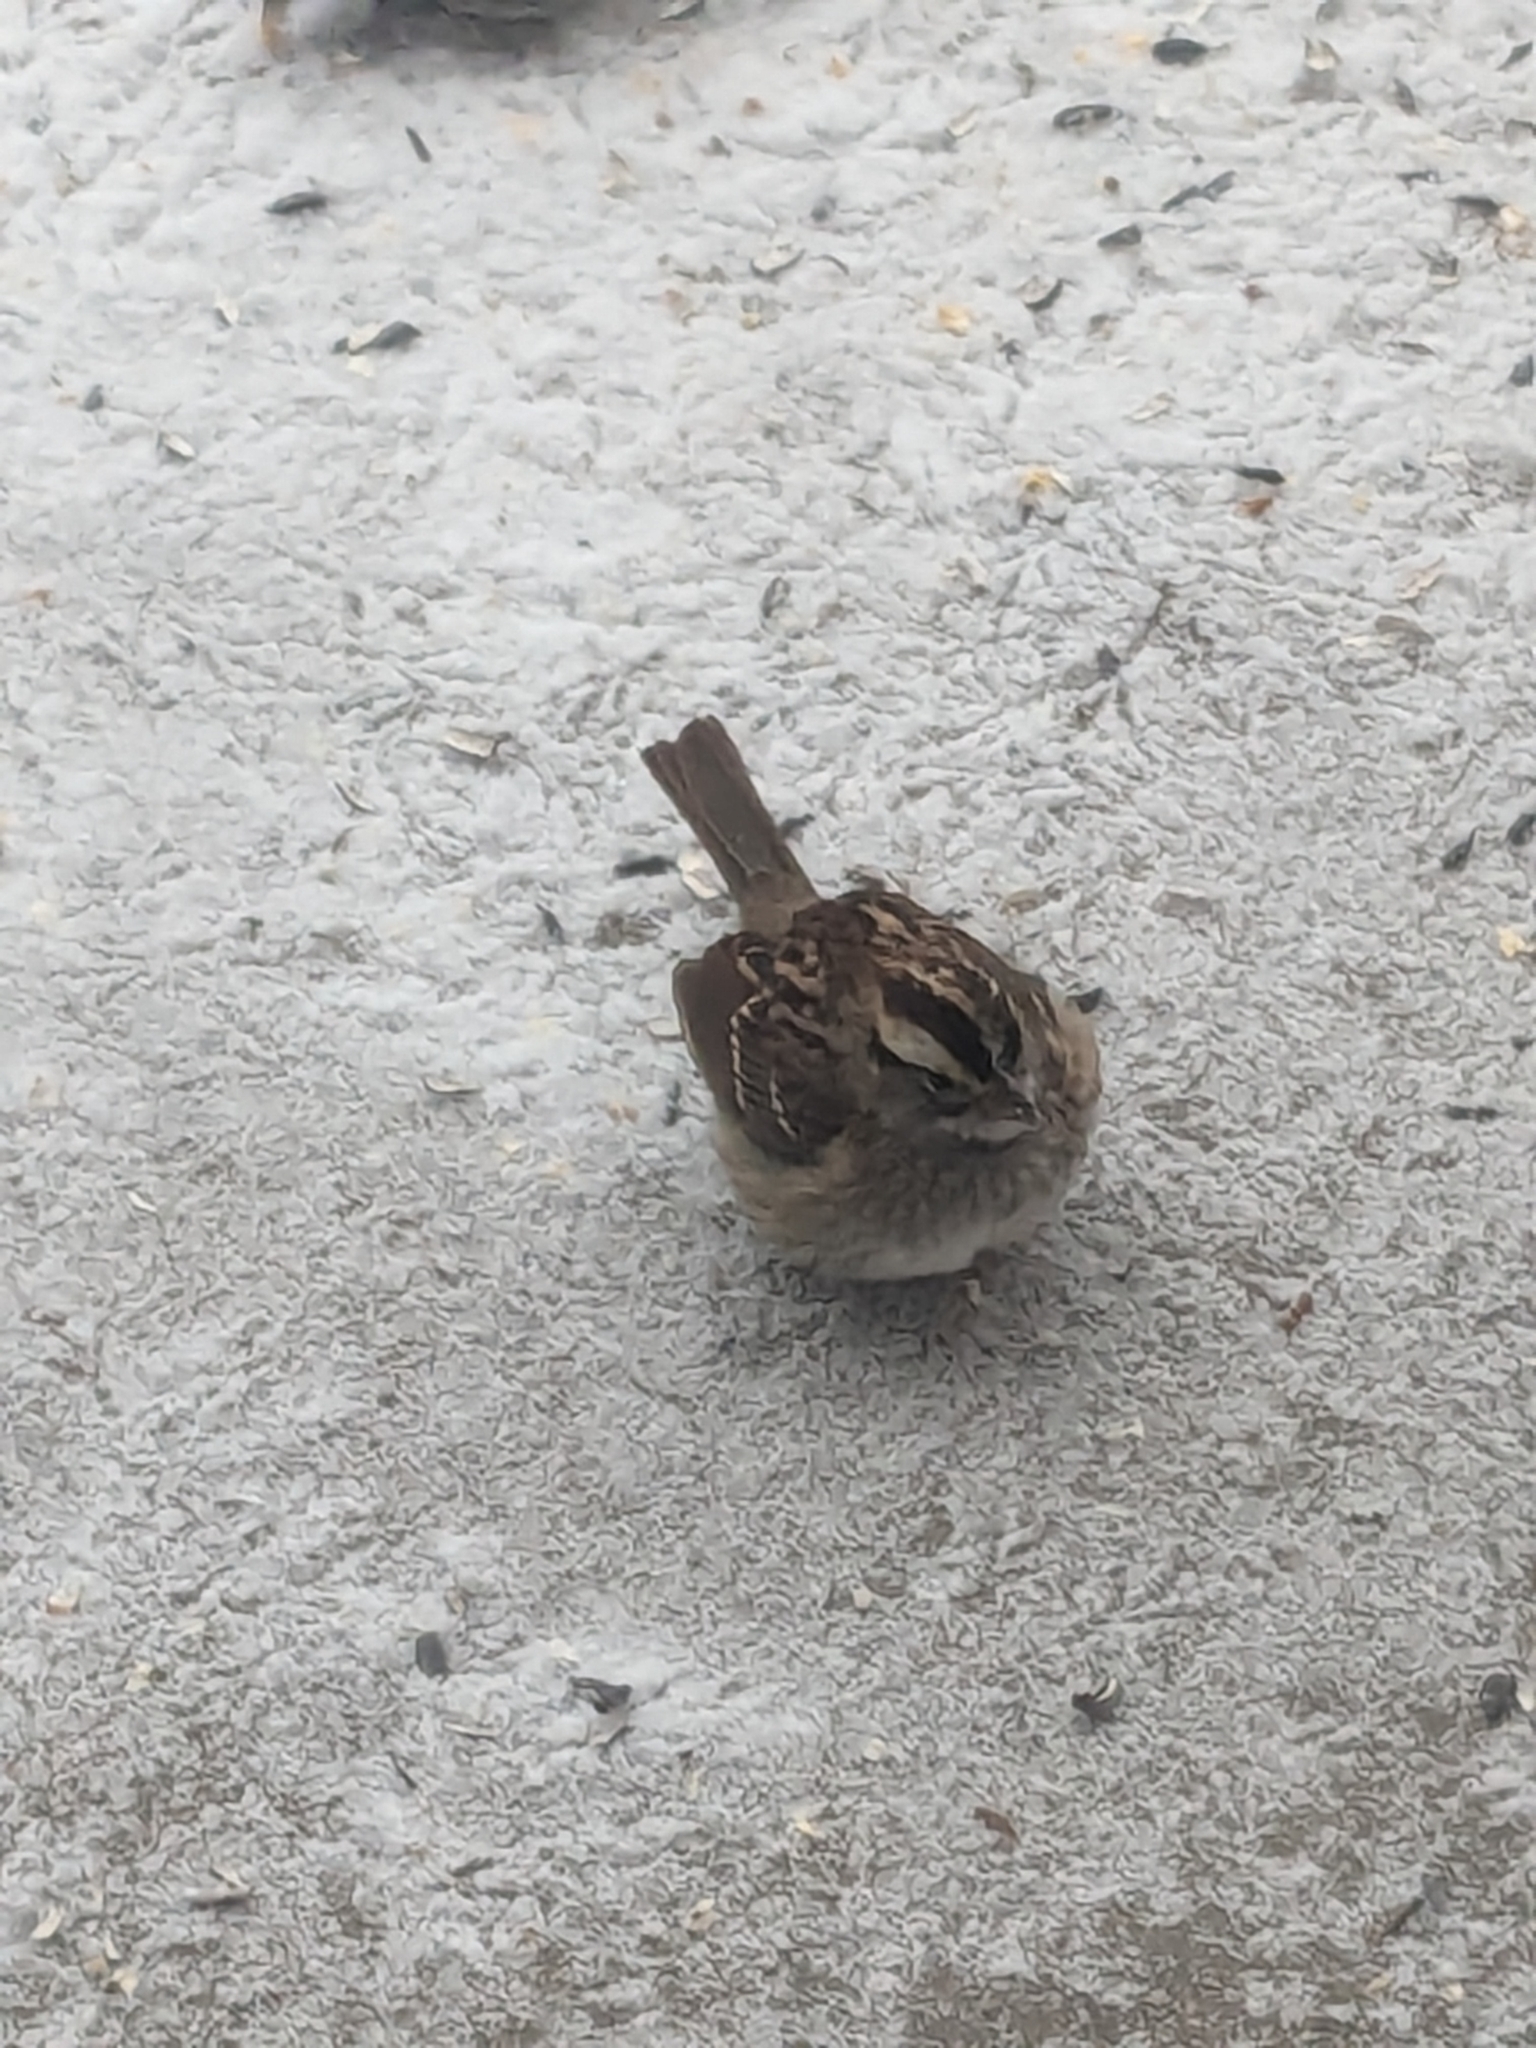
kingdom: Animalia
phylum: Chordata
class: Aves
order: Passeriformes
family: Passerellidae
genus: Zonotrichia
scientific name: Zonotrichia albicollis
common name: White-throated sparrow
